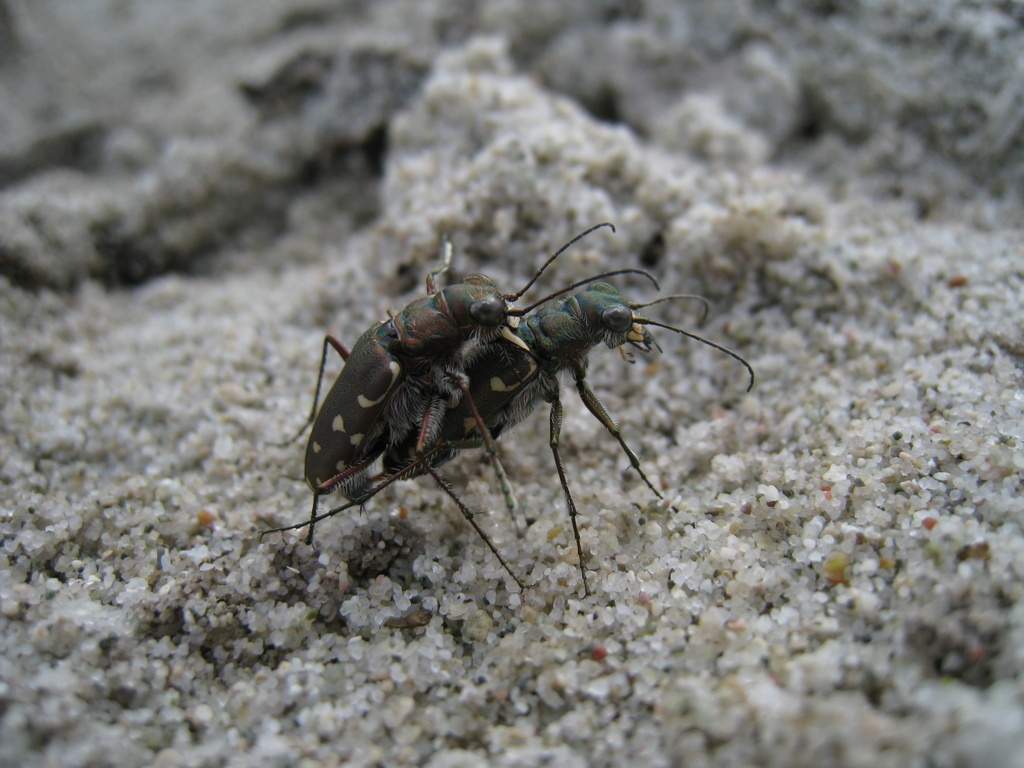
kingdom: Animalia
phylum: Arthropoda
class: Insecta
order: Coleoptera
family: Carabidae
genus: Cicindela
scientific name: Cicindela littoralis
